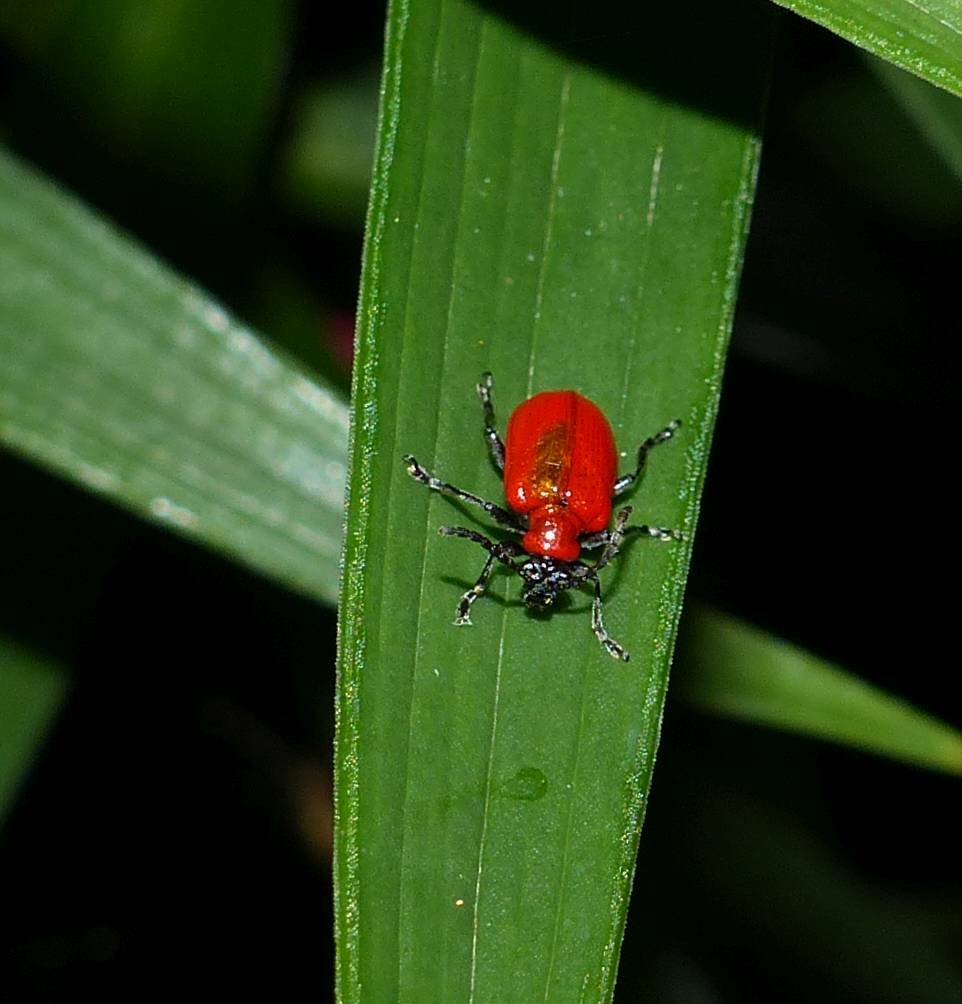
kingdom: Animalia
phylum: Arthropoda
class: Insecta
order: Coleoptera
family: Chrysomelidae
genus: Lilioceris
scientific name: Lilioceris lilii
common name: Lily beetle
